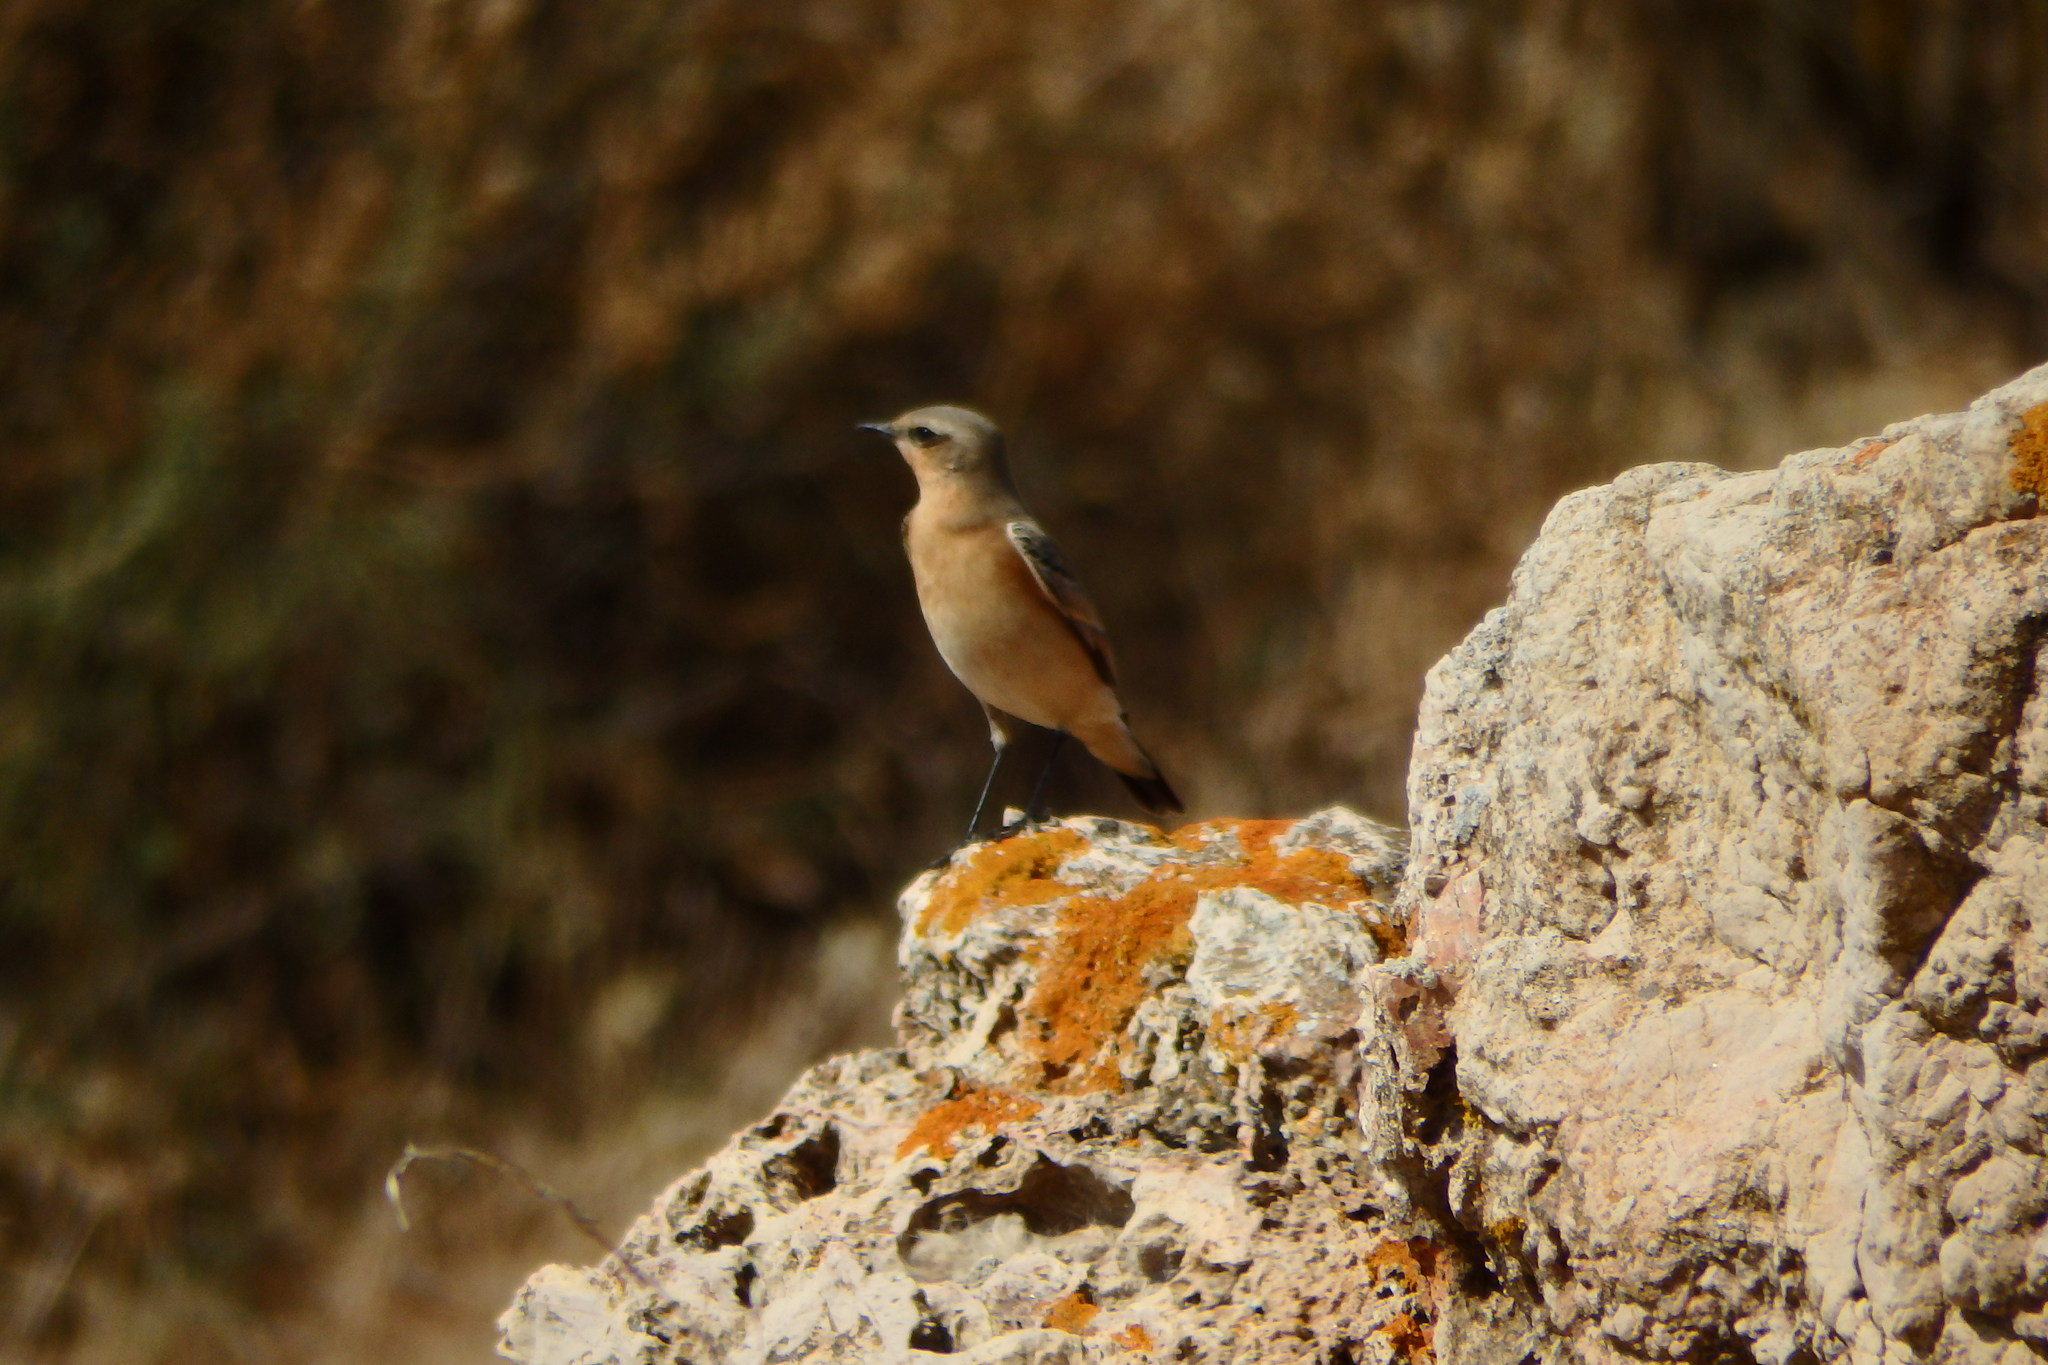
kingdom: Animalia
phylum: Chordata
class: Aves
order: Passeriformes
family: Muscicapidae
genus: Oenanthe
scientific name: Oenanthe oenanthe
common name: Northern wheatear
